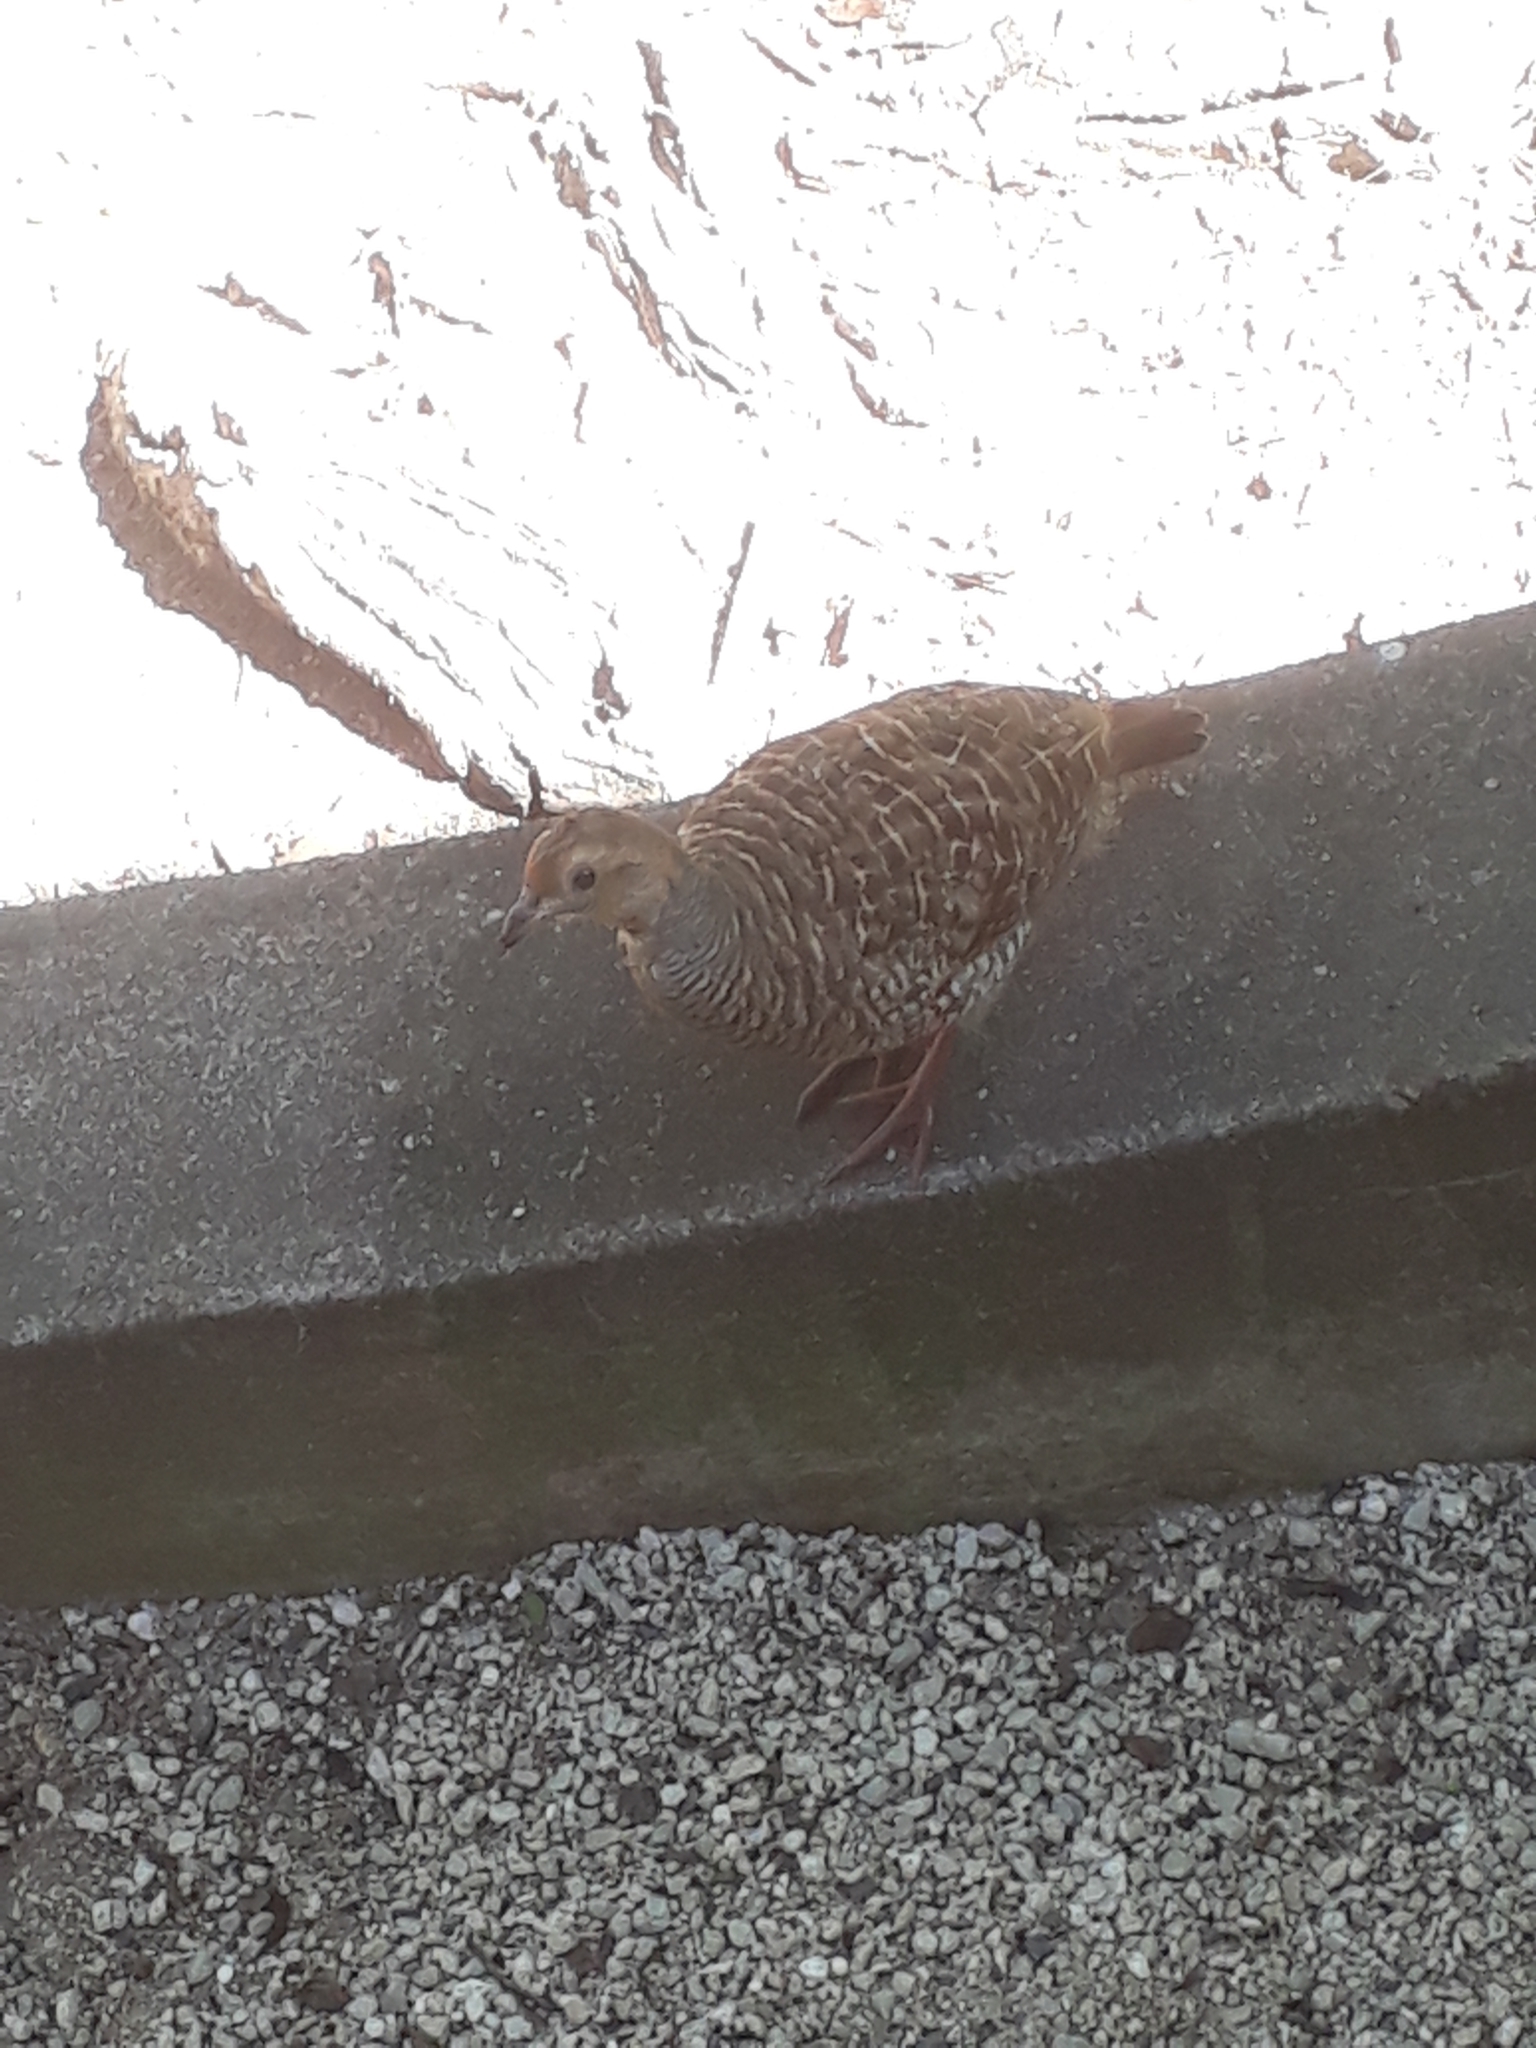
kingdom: Animalia
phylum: Chordata
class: Aves
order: Galliformes
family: Phasianidae
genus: Ortygornis
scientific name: Ortygornis pondicerianus
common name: Grey francolin
